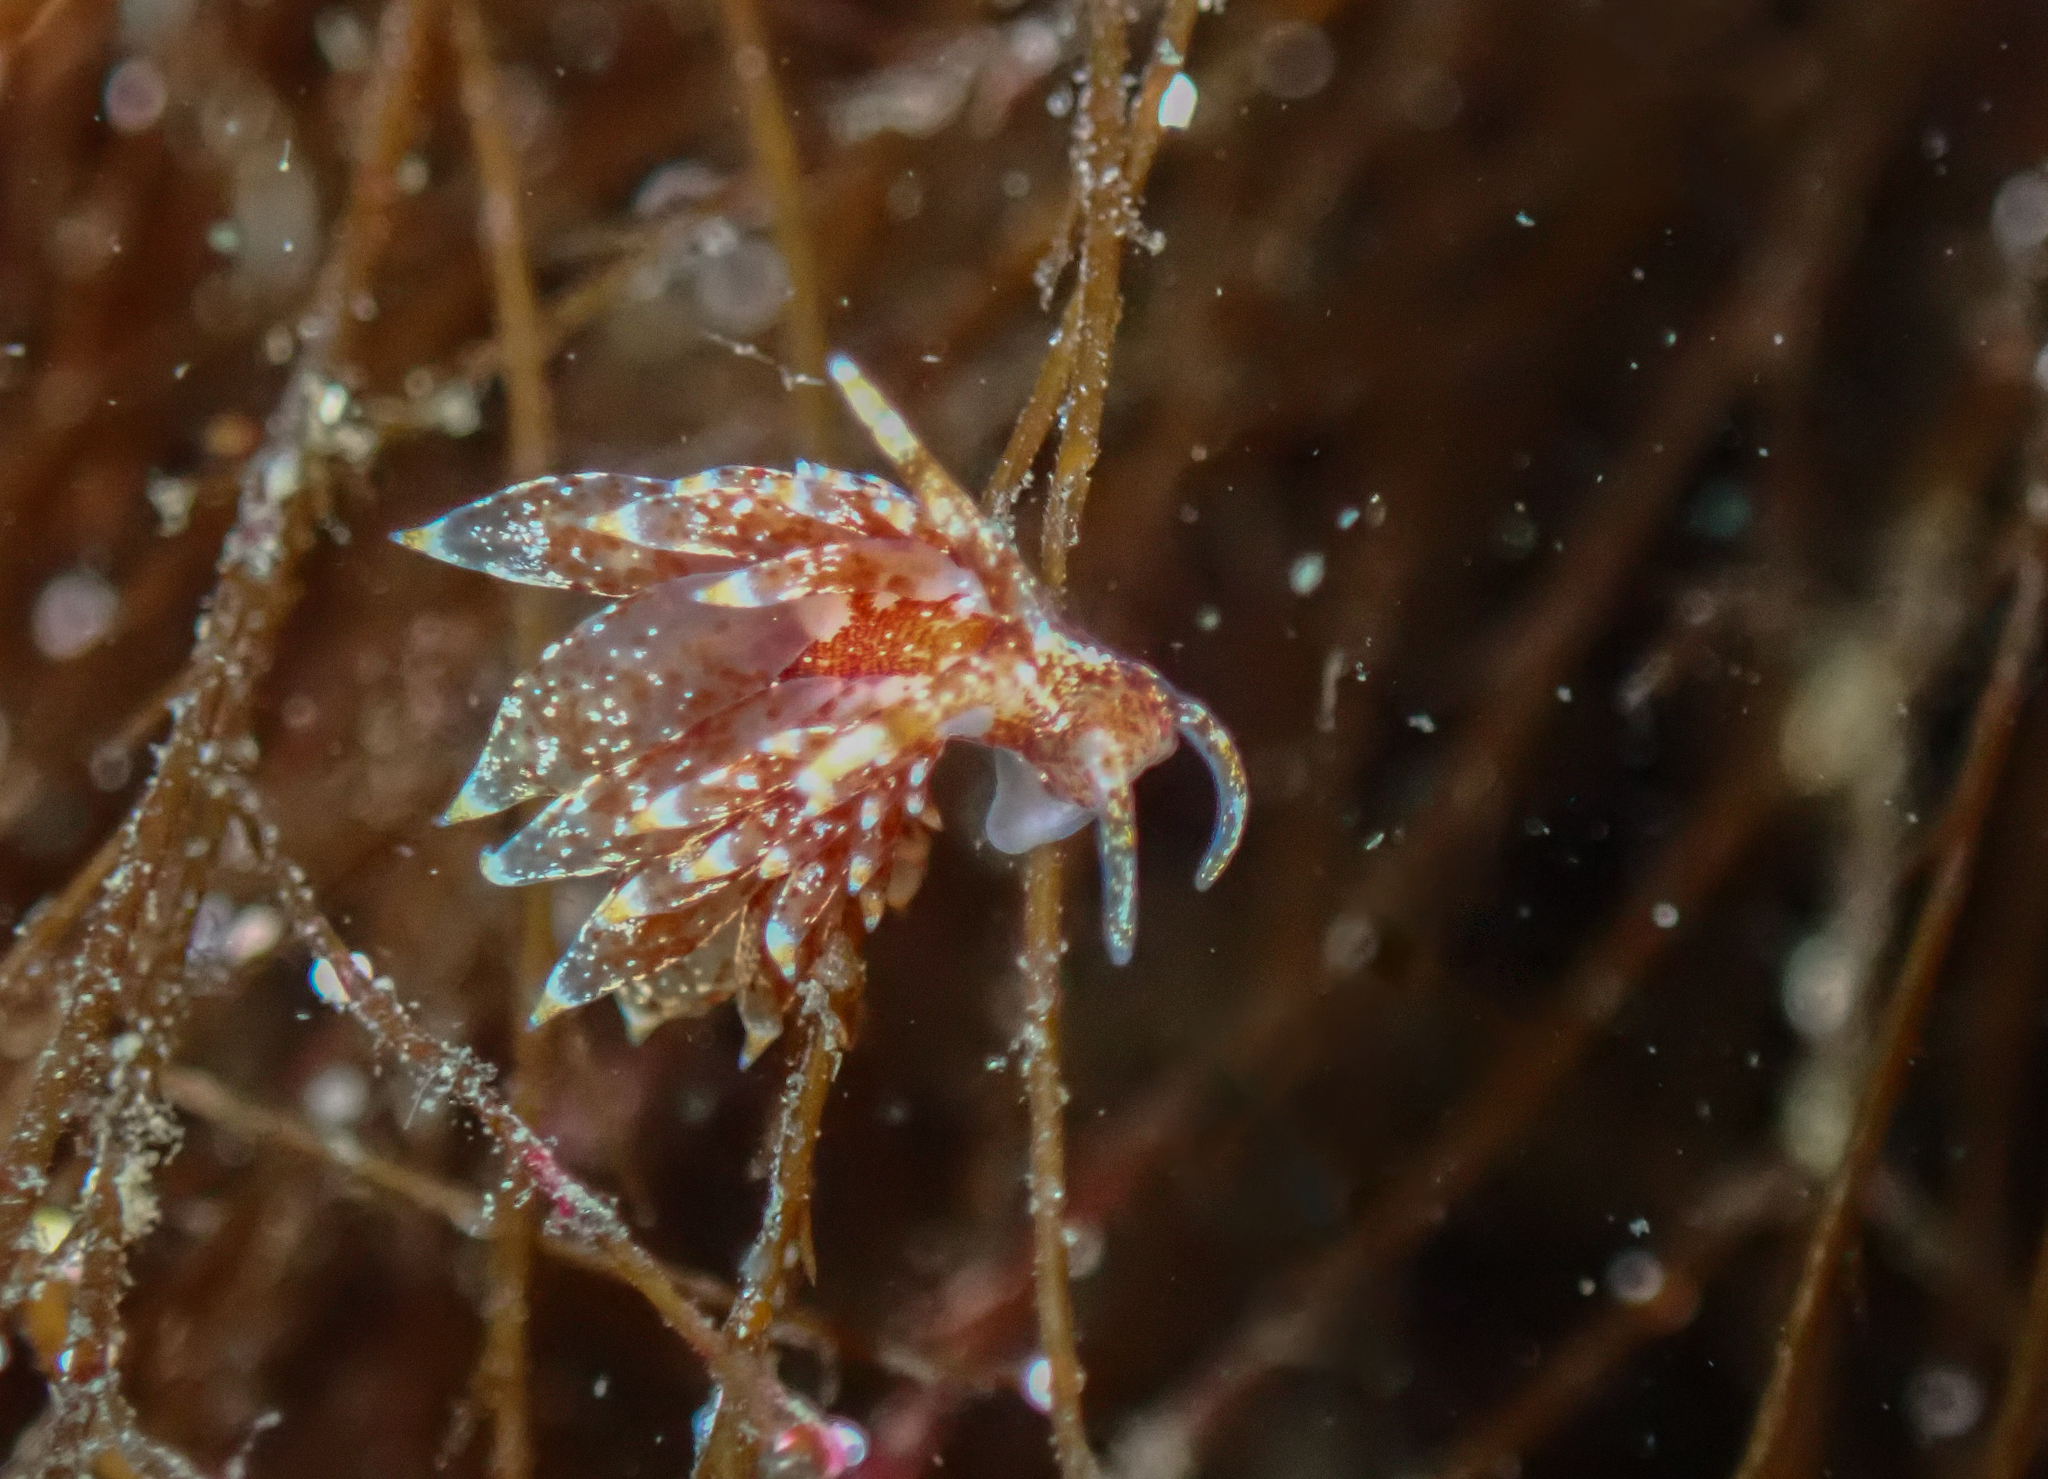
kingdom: Animalia
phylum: Mollusca
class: Gastropoda
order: Nudibranchia
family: Eubranchidae
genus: Amphorina
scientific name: Amphorina pallida
